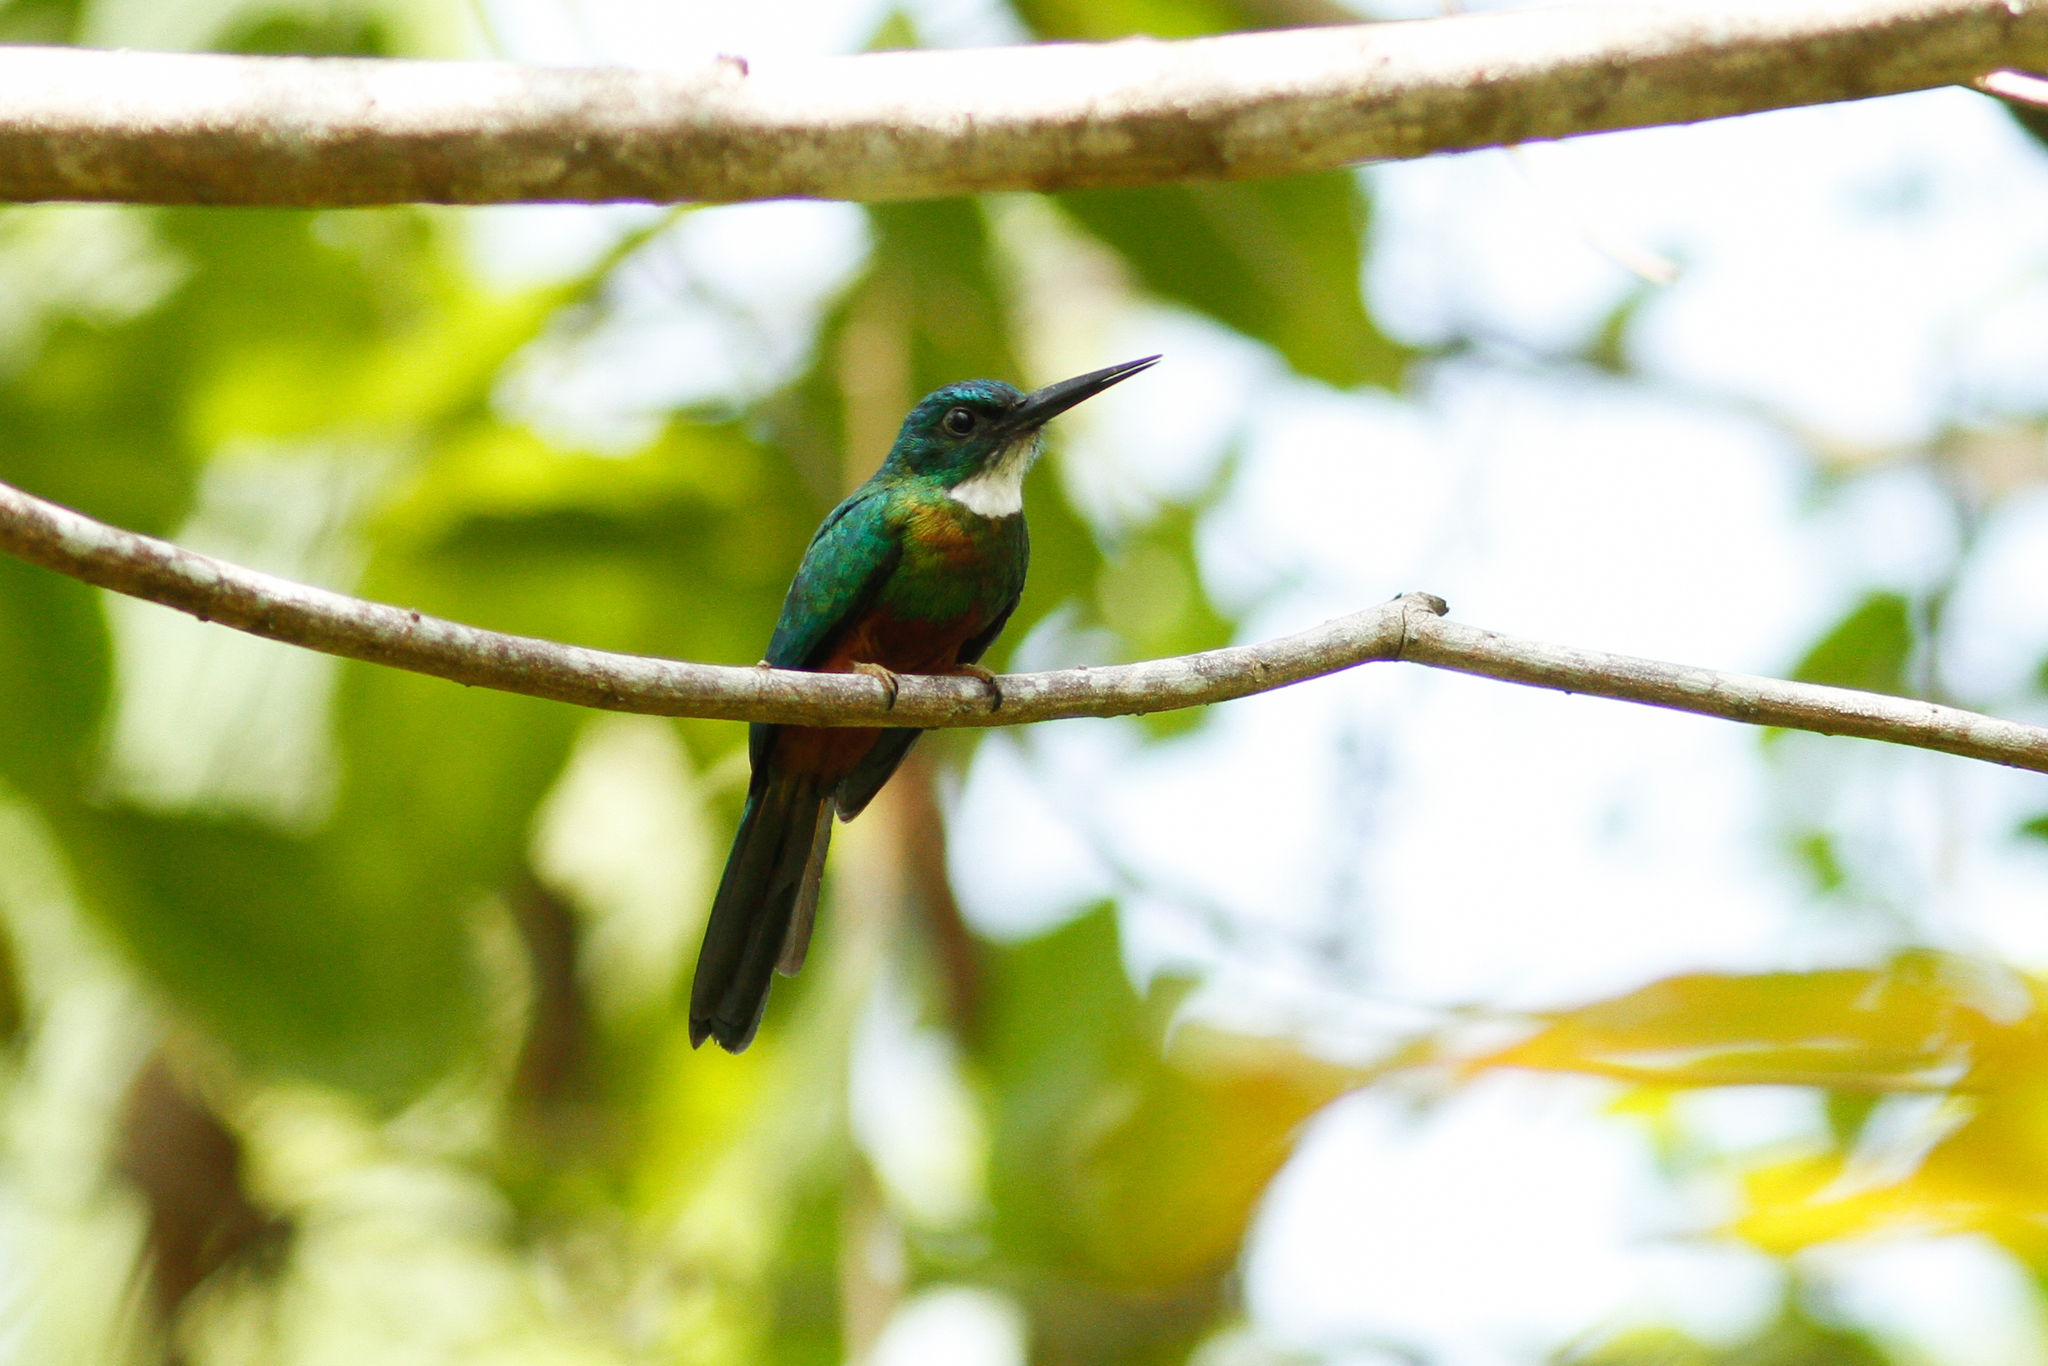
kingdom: Animalia
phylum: Chordata
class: Aves
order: Piciformes
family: Galbulidae
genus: Galbula
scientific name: Galbula galbula
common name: Green-tailed jacamar
